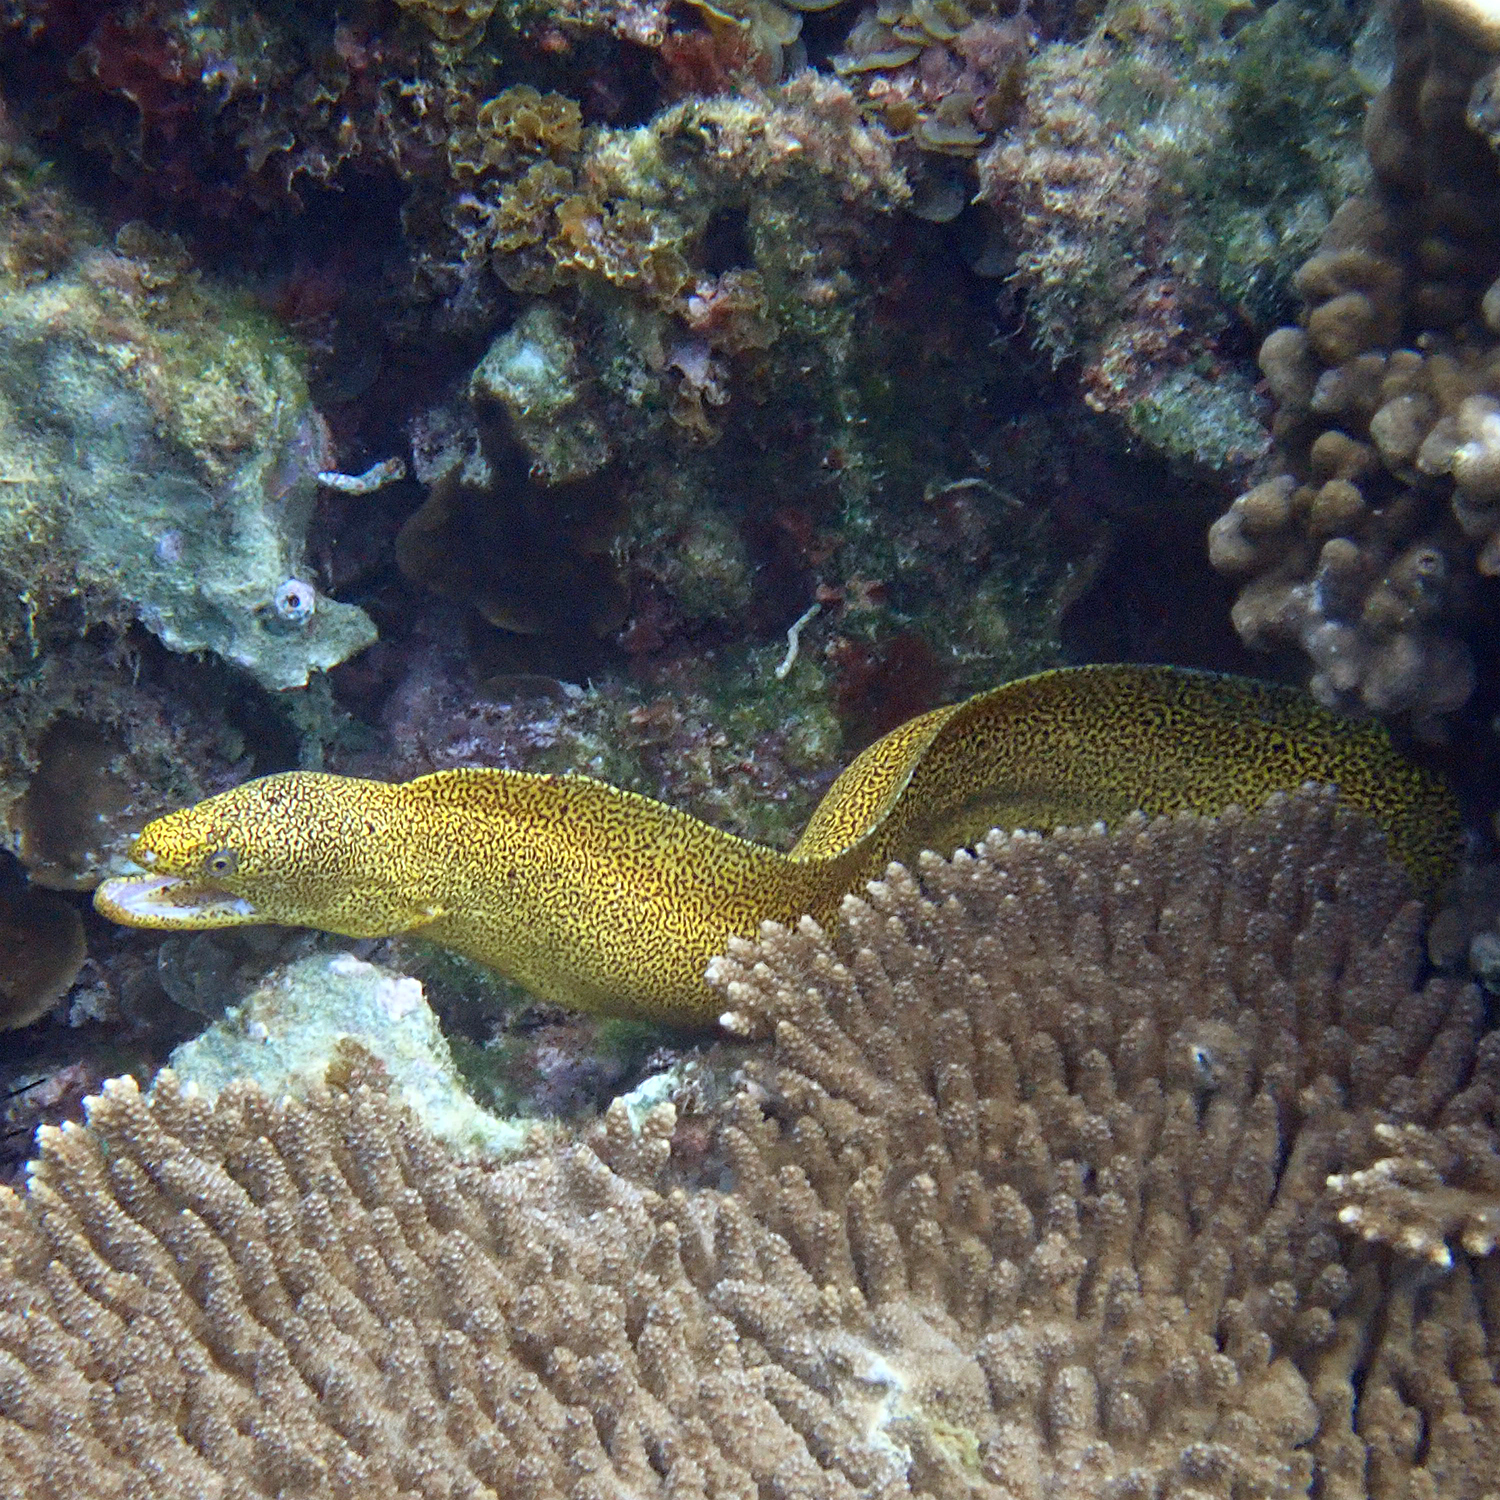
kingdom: Animalia
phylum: Chordata
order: Anguilliformes
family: Muraenidae
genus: Gymnothorax
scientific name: Gymnothorax eurostus
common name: Stout moray
